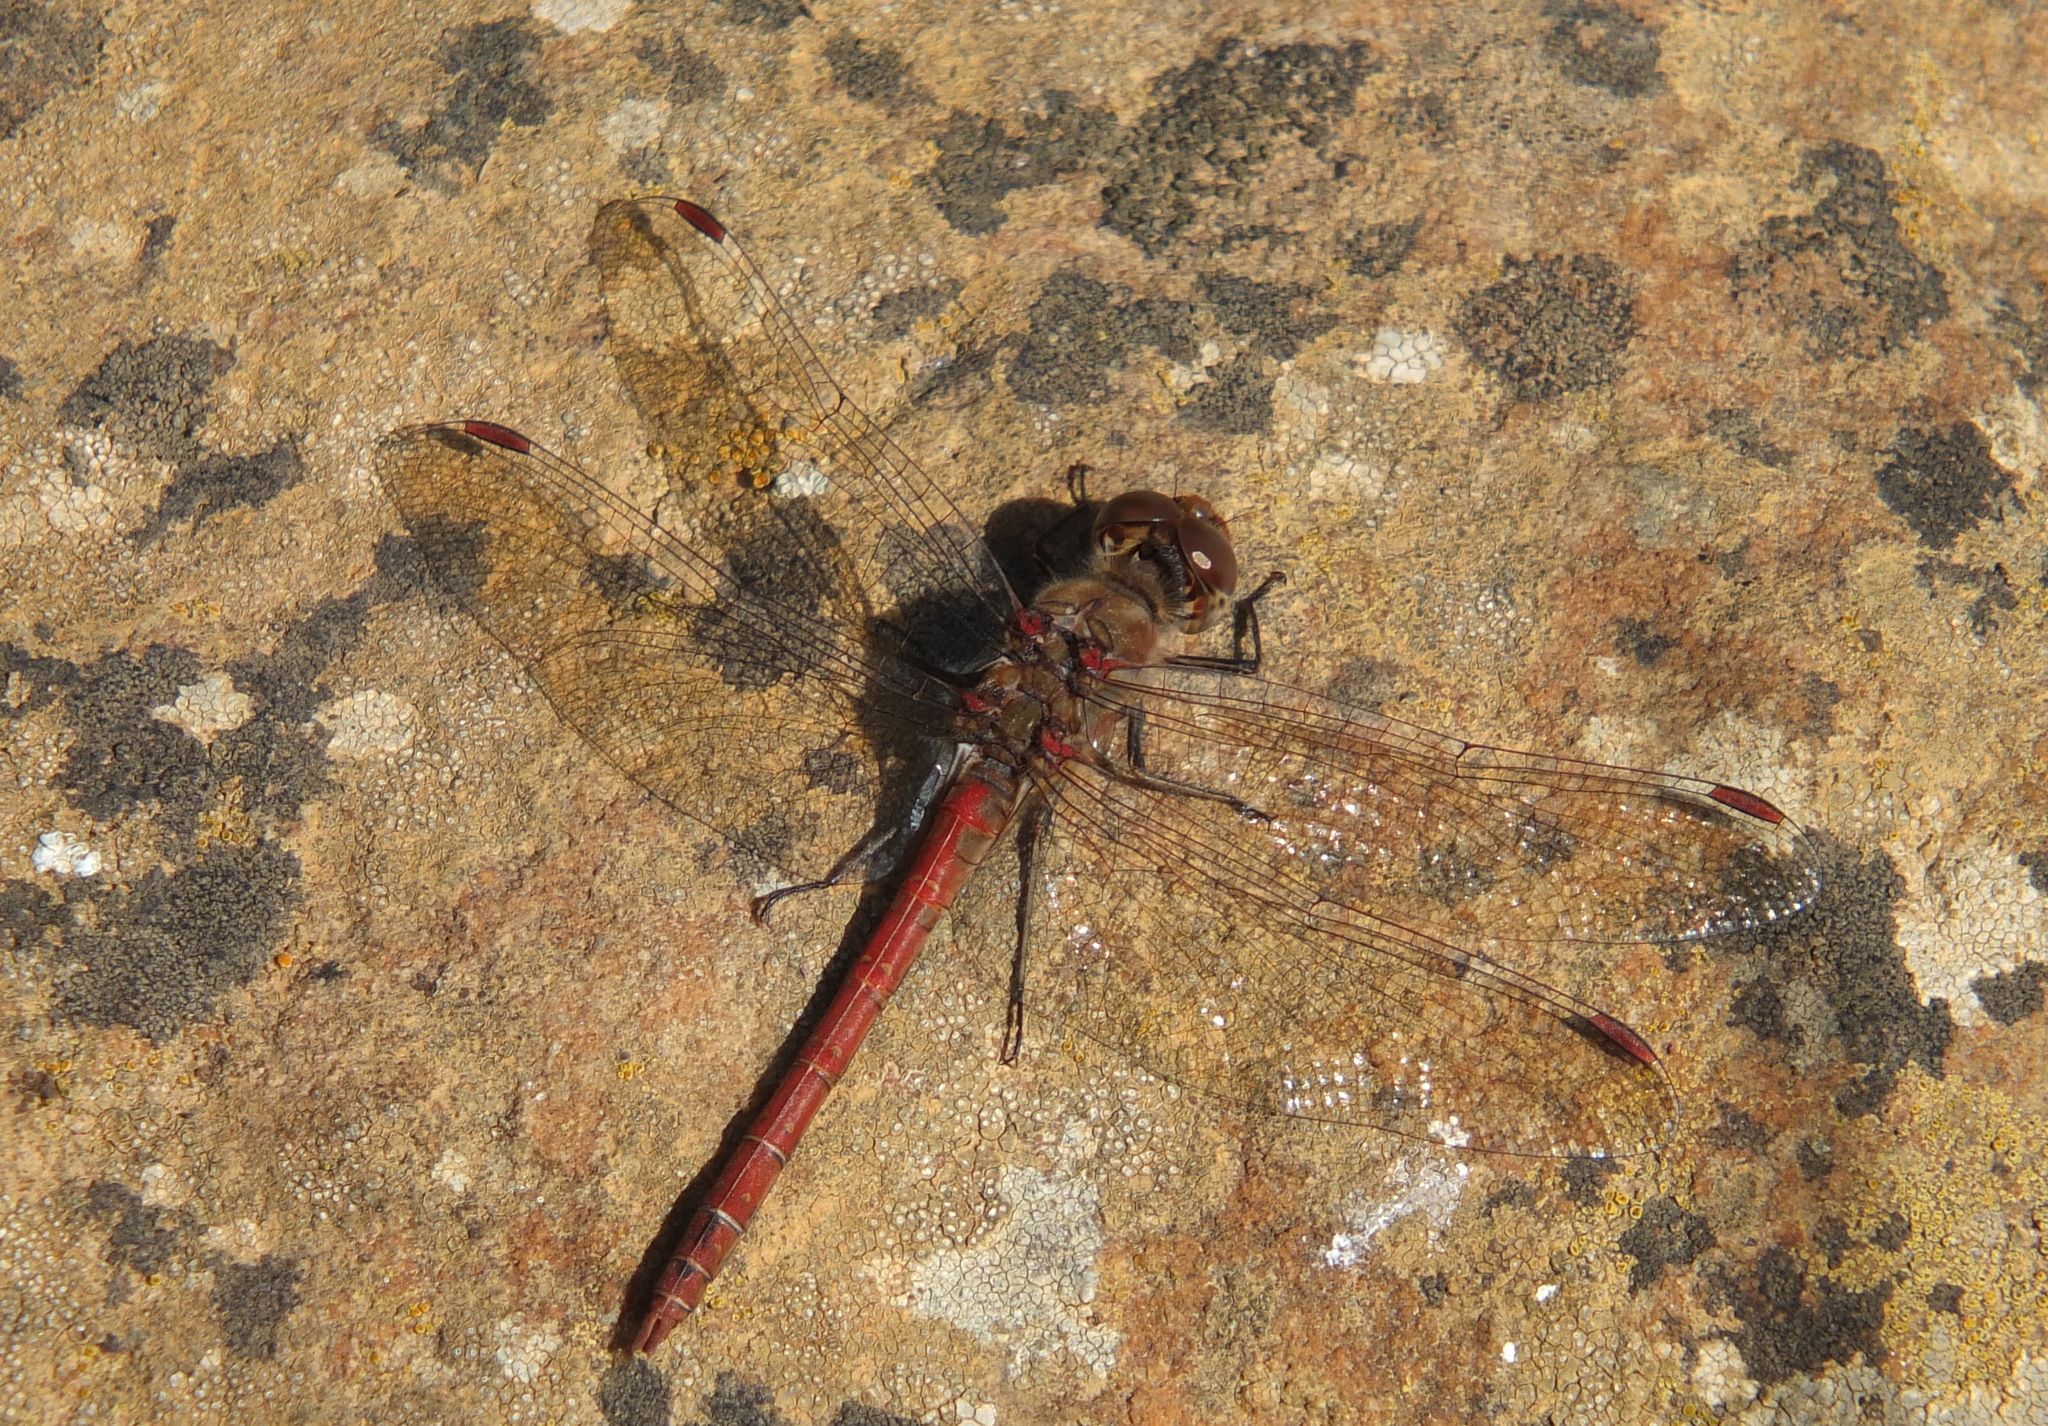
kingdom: Animalia
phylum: Arthropoda
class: Insecta
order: Odonata
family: Libellulidae
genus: Sympetrum
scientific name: Sympetrum striolatum
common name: Common darter
